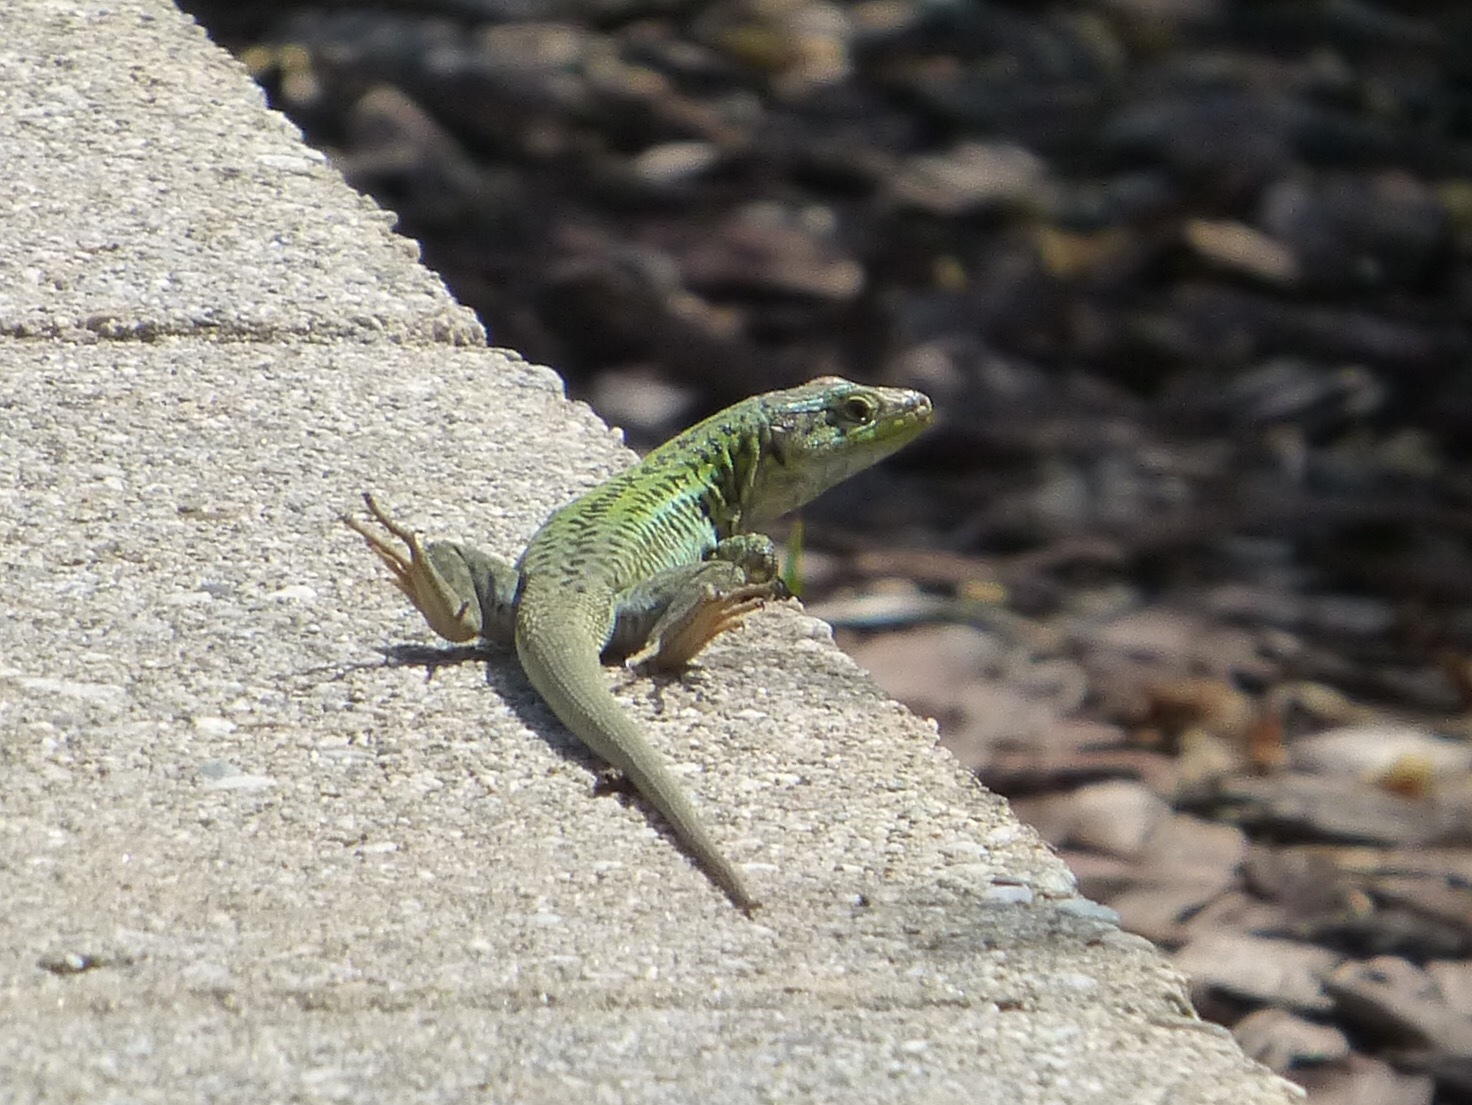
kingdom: Animalia
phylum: Chordata
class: Squamata
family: Lacertidae
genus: Podarcis
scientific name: Podarcis siculus
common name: Italian wall lizard
